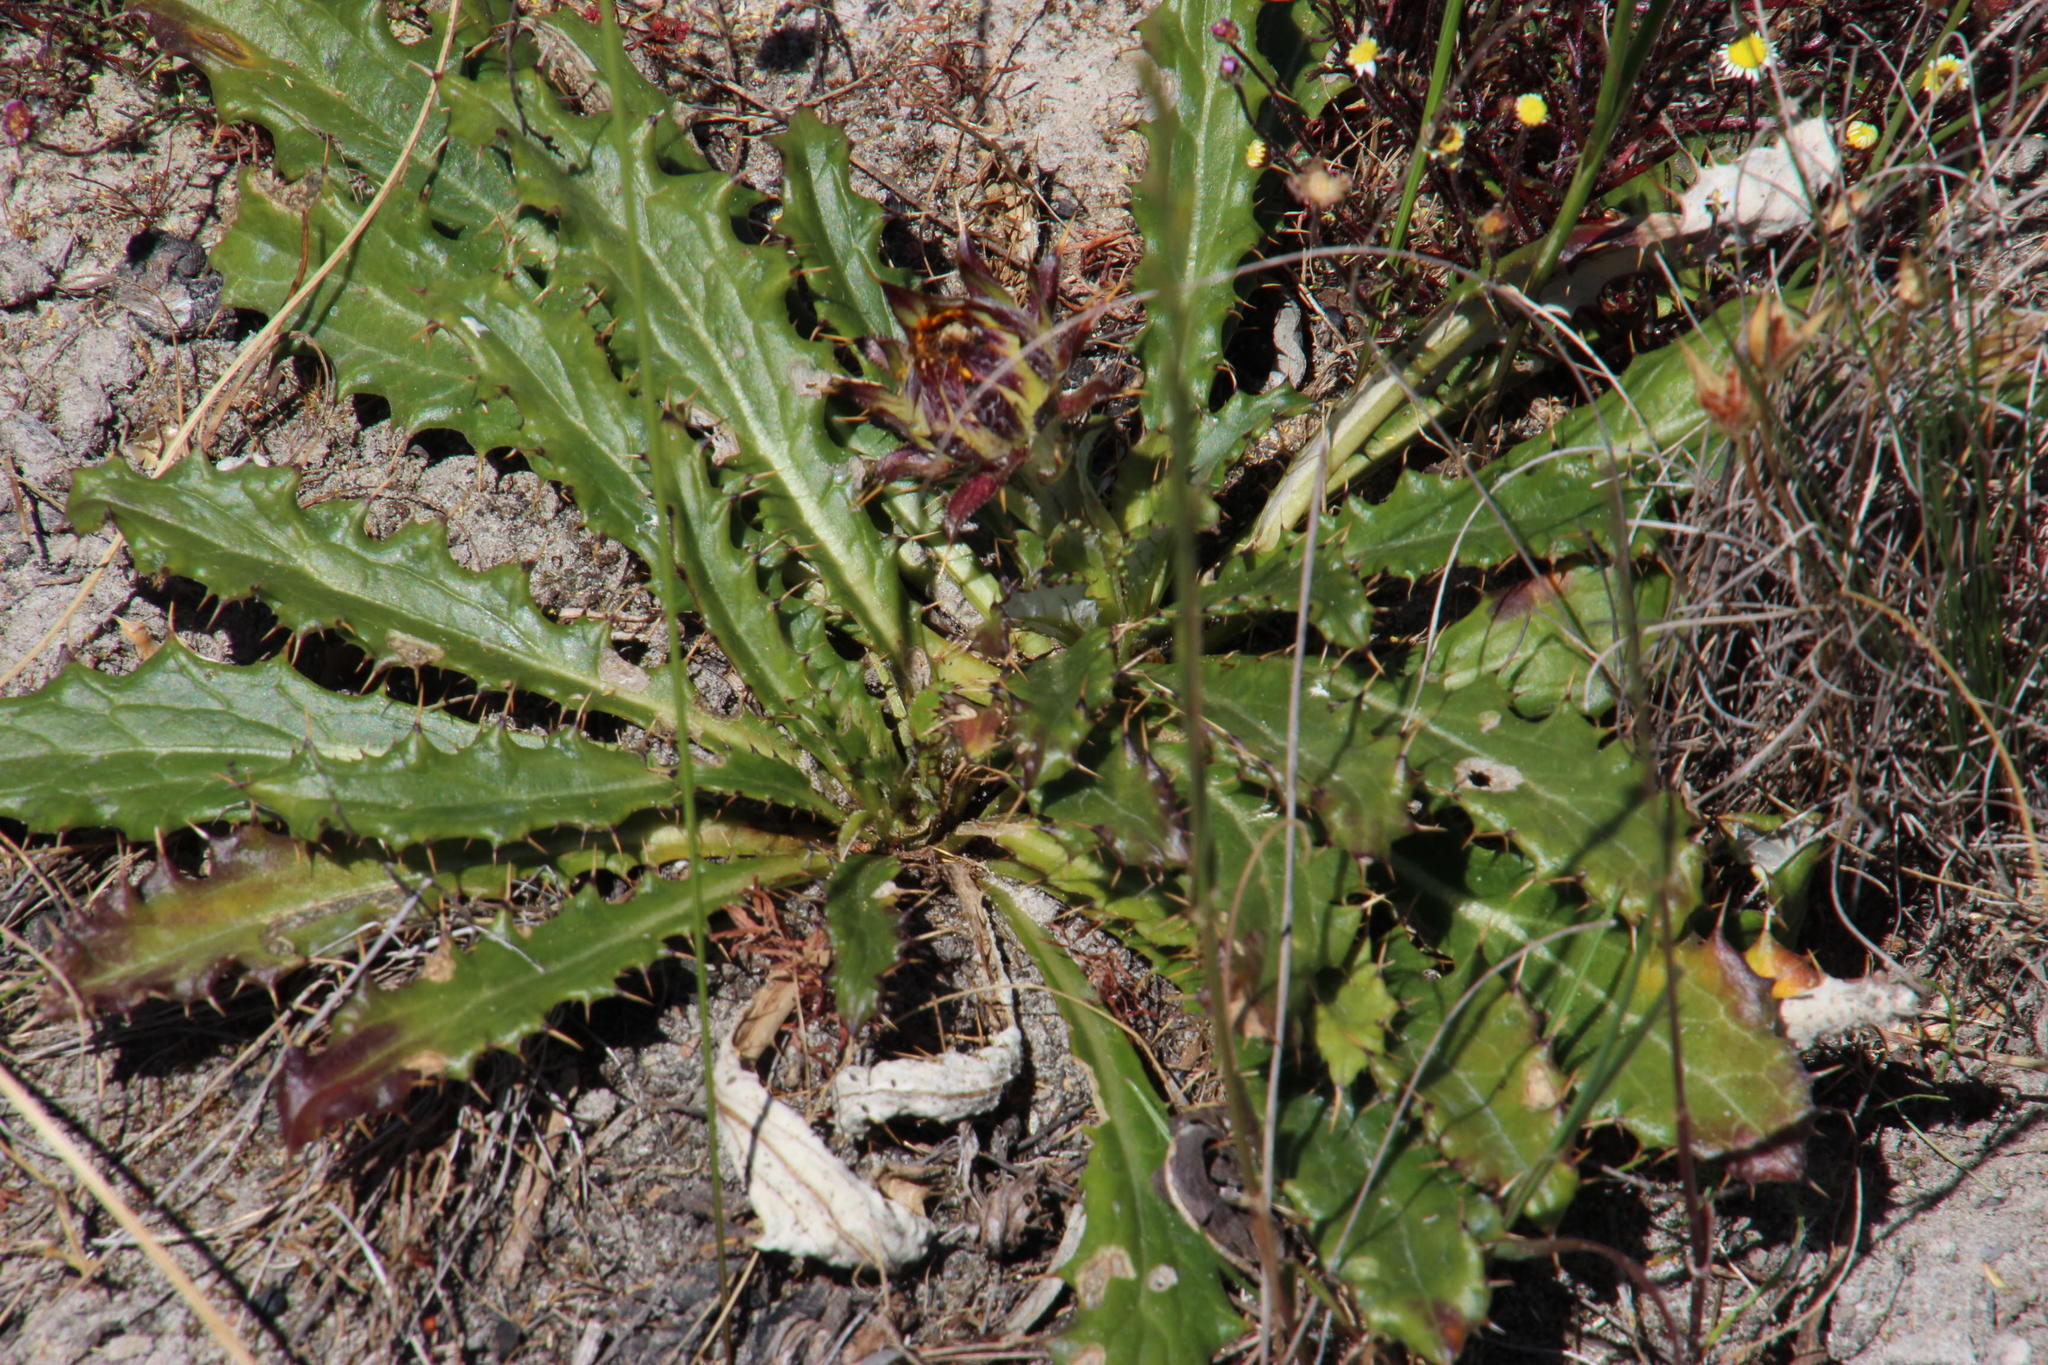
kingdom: Plantae
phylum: Tracheophyta
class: Magnoliopsida
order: Asterales
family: Asteraceae
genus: Berkheya
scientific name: Berkheya armata
